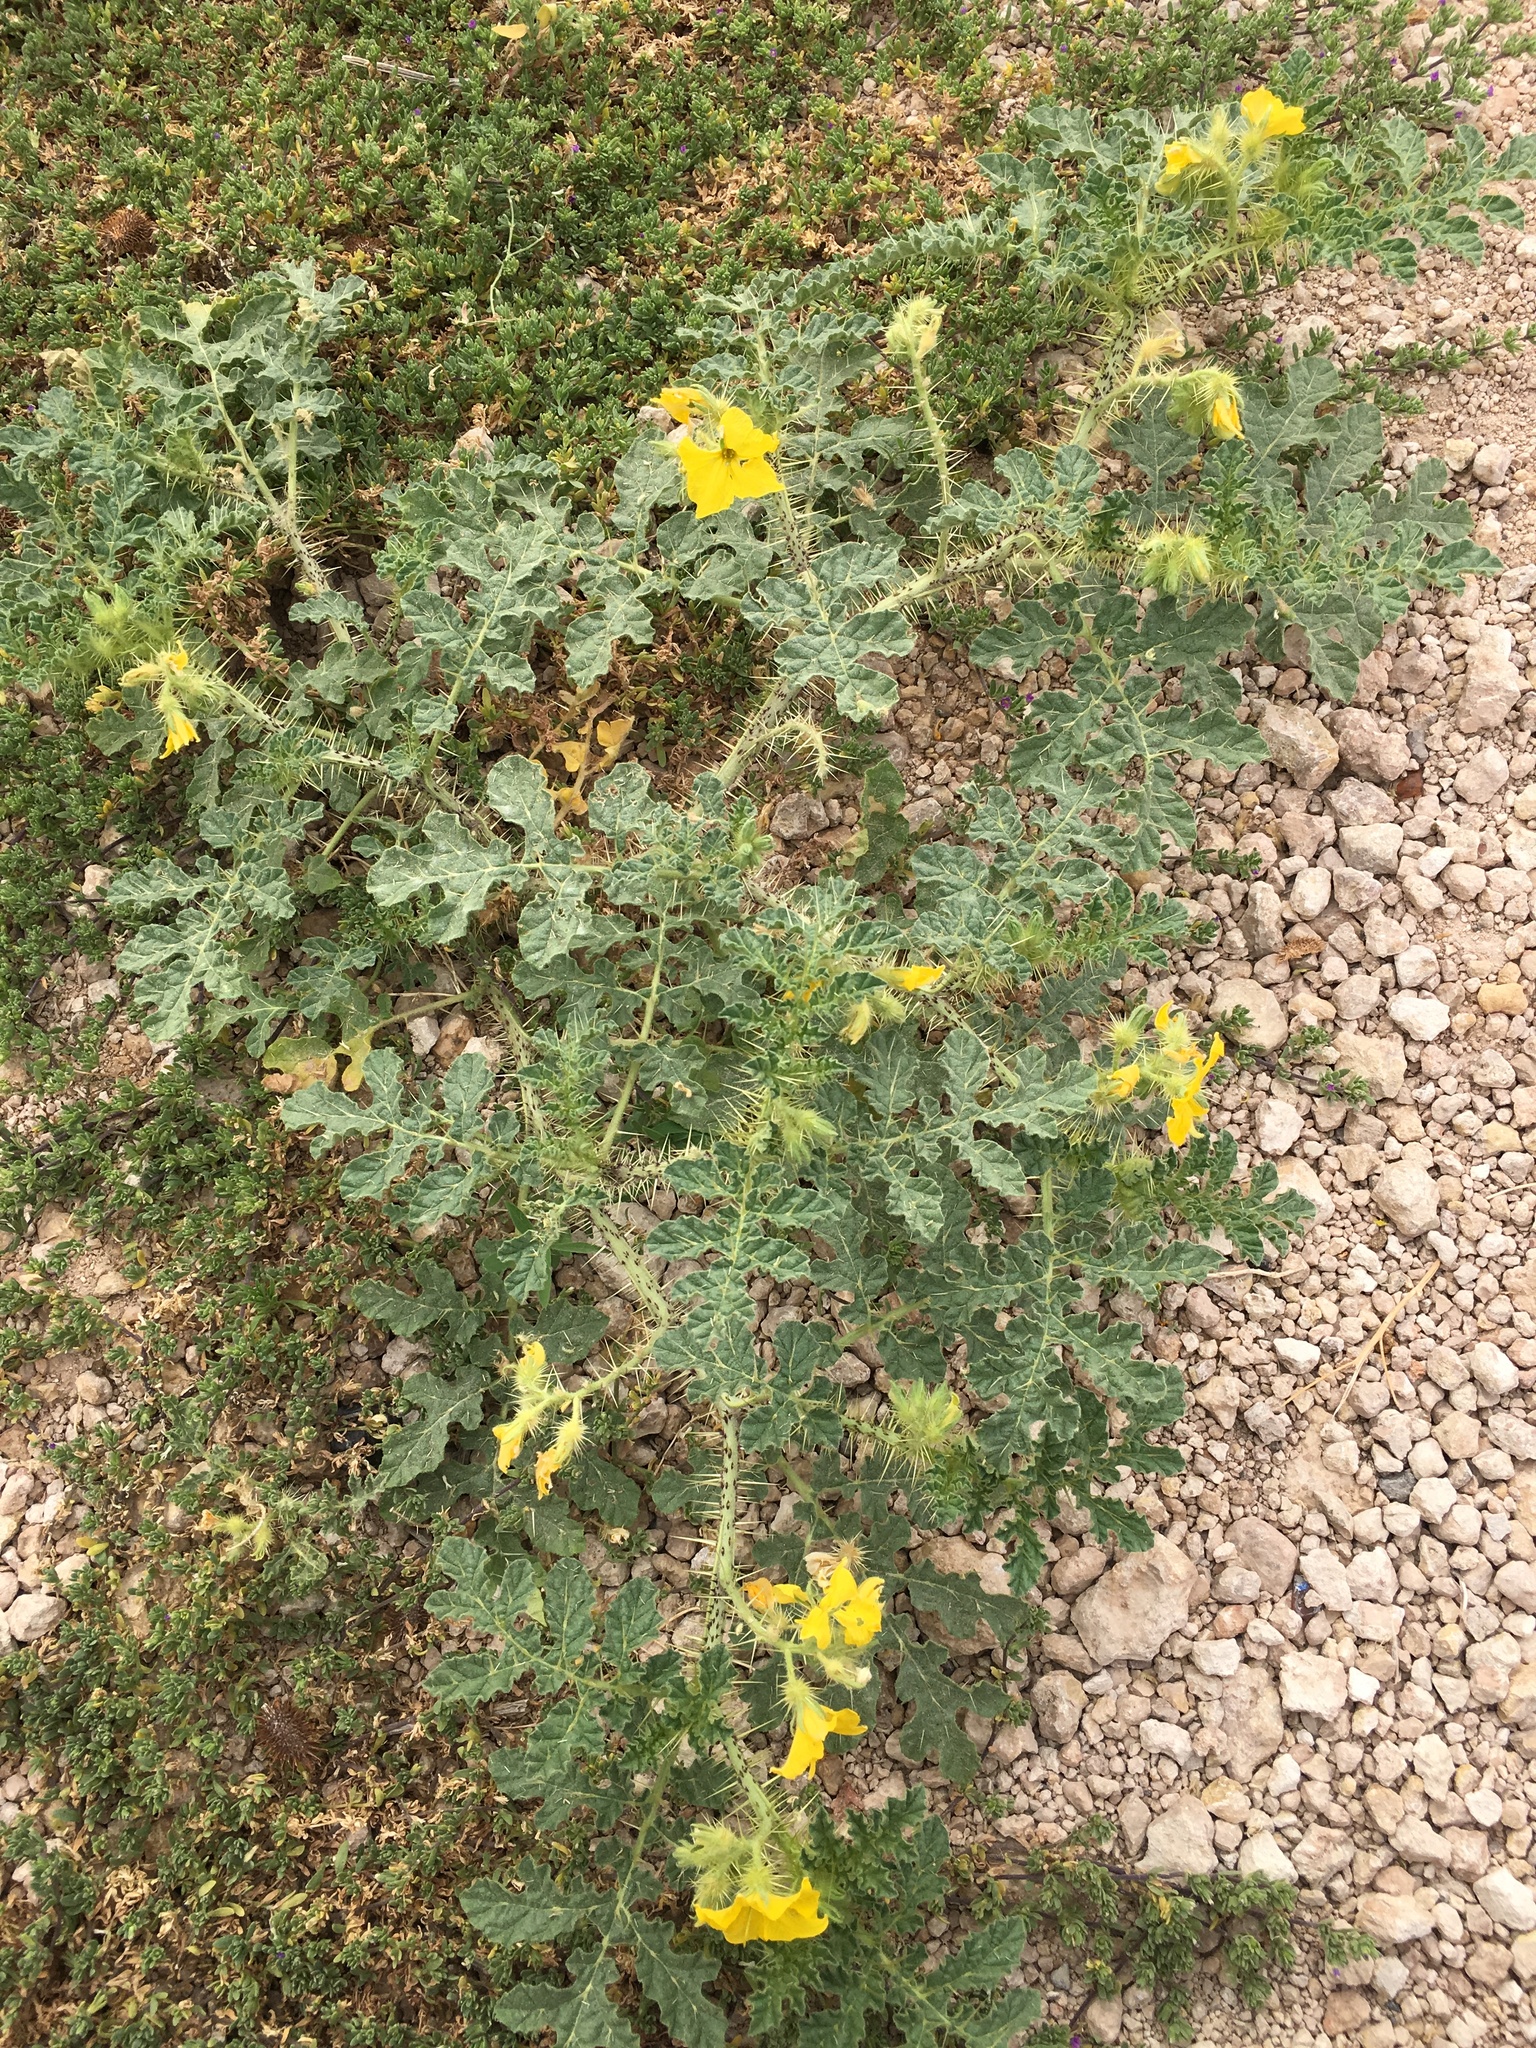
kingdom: Plantae
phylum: Tracheophyta
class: Magnoliopsida
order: Solanales
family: Solanaceae
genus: Solanum
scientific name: Solanum angustifolium
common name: Buffalobur nightshade
